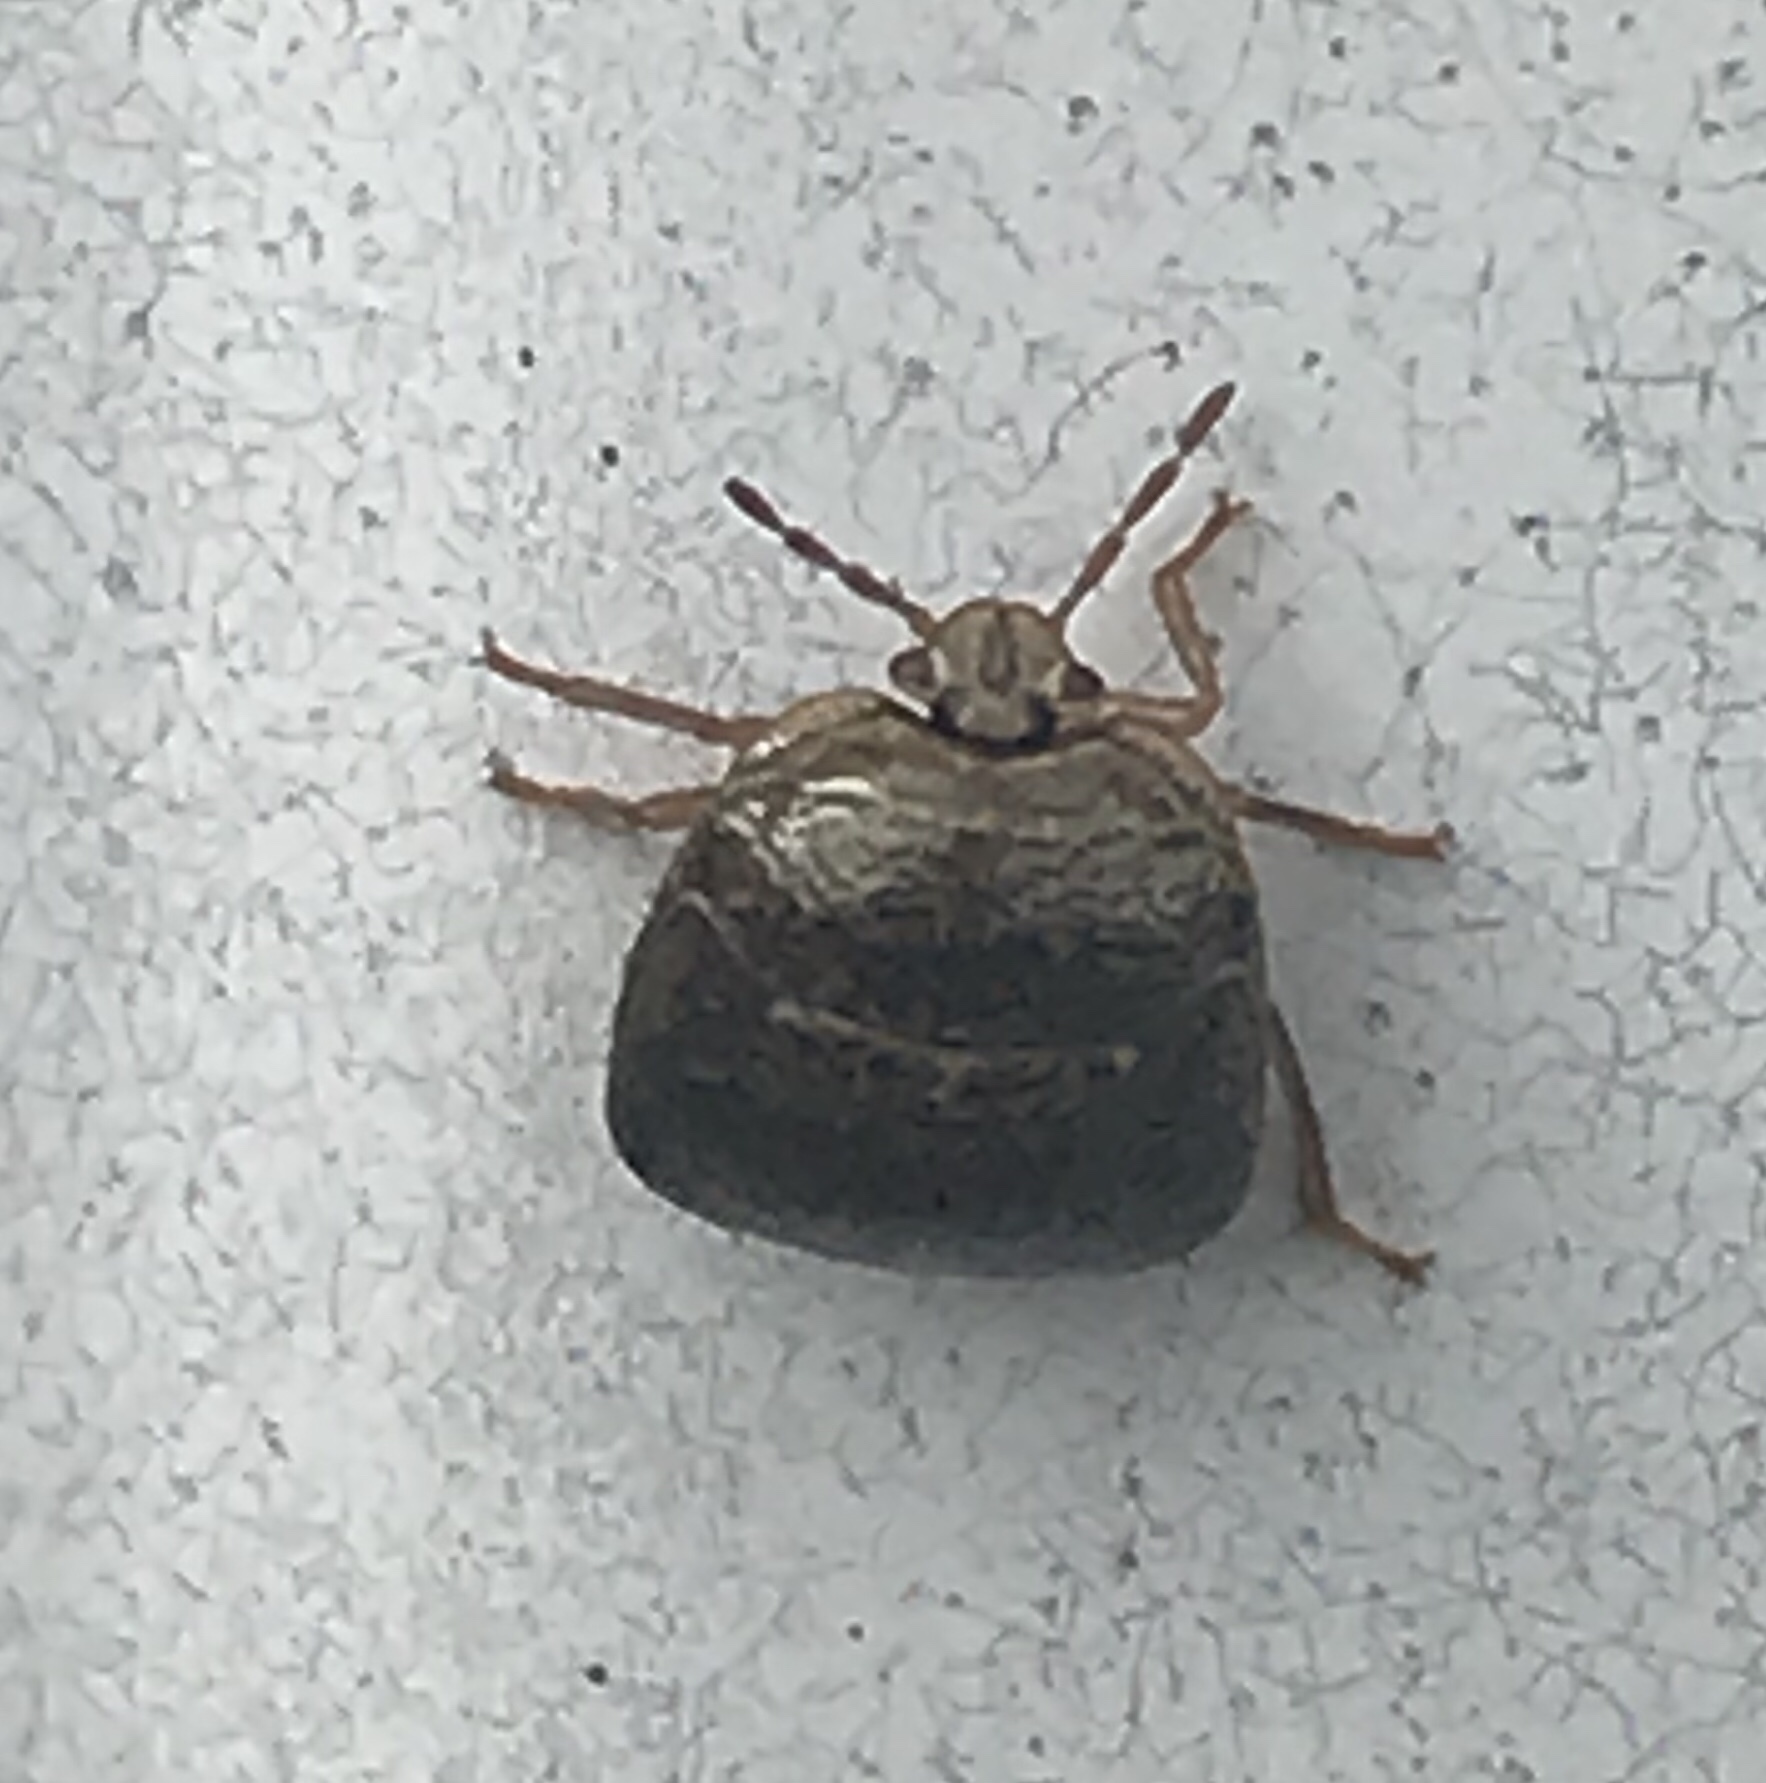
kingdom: Animalia
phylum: Arthropoda
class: Insecta
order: Hemiptera
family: Plataspidae
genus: Megacopta
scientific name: Megacopta cribraria
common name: Bean plataspid
